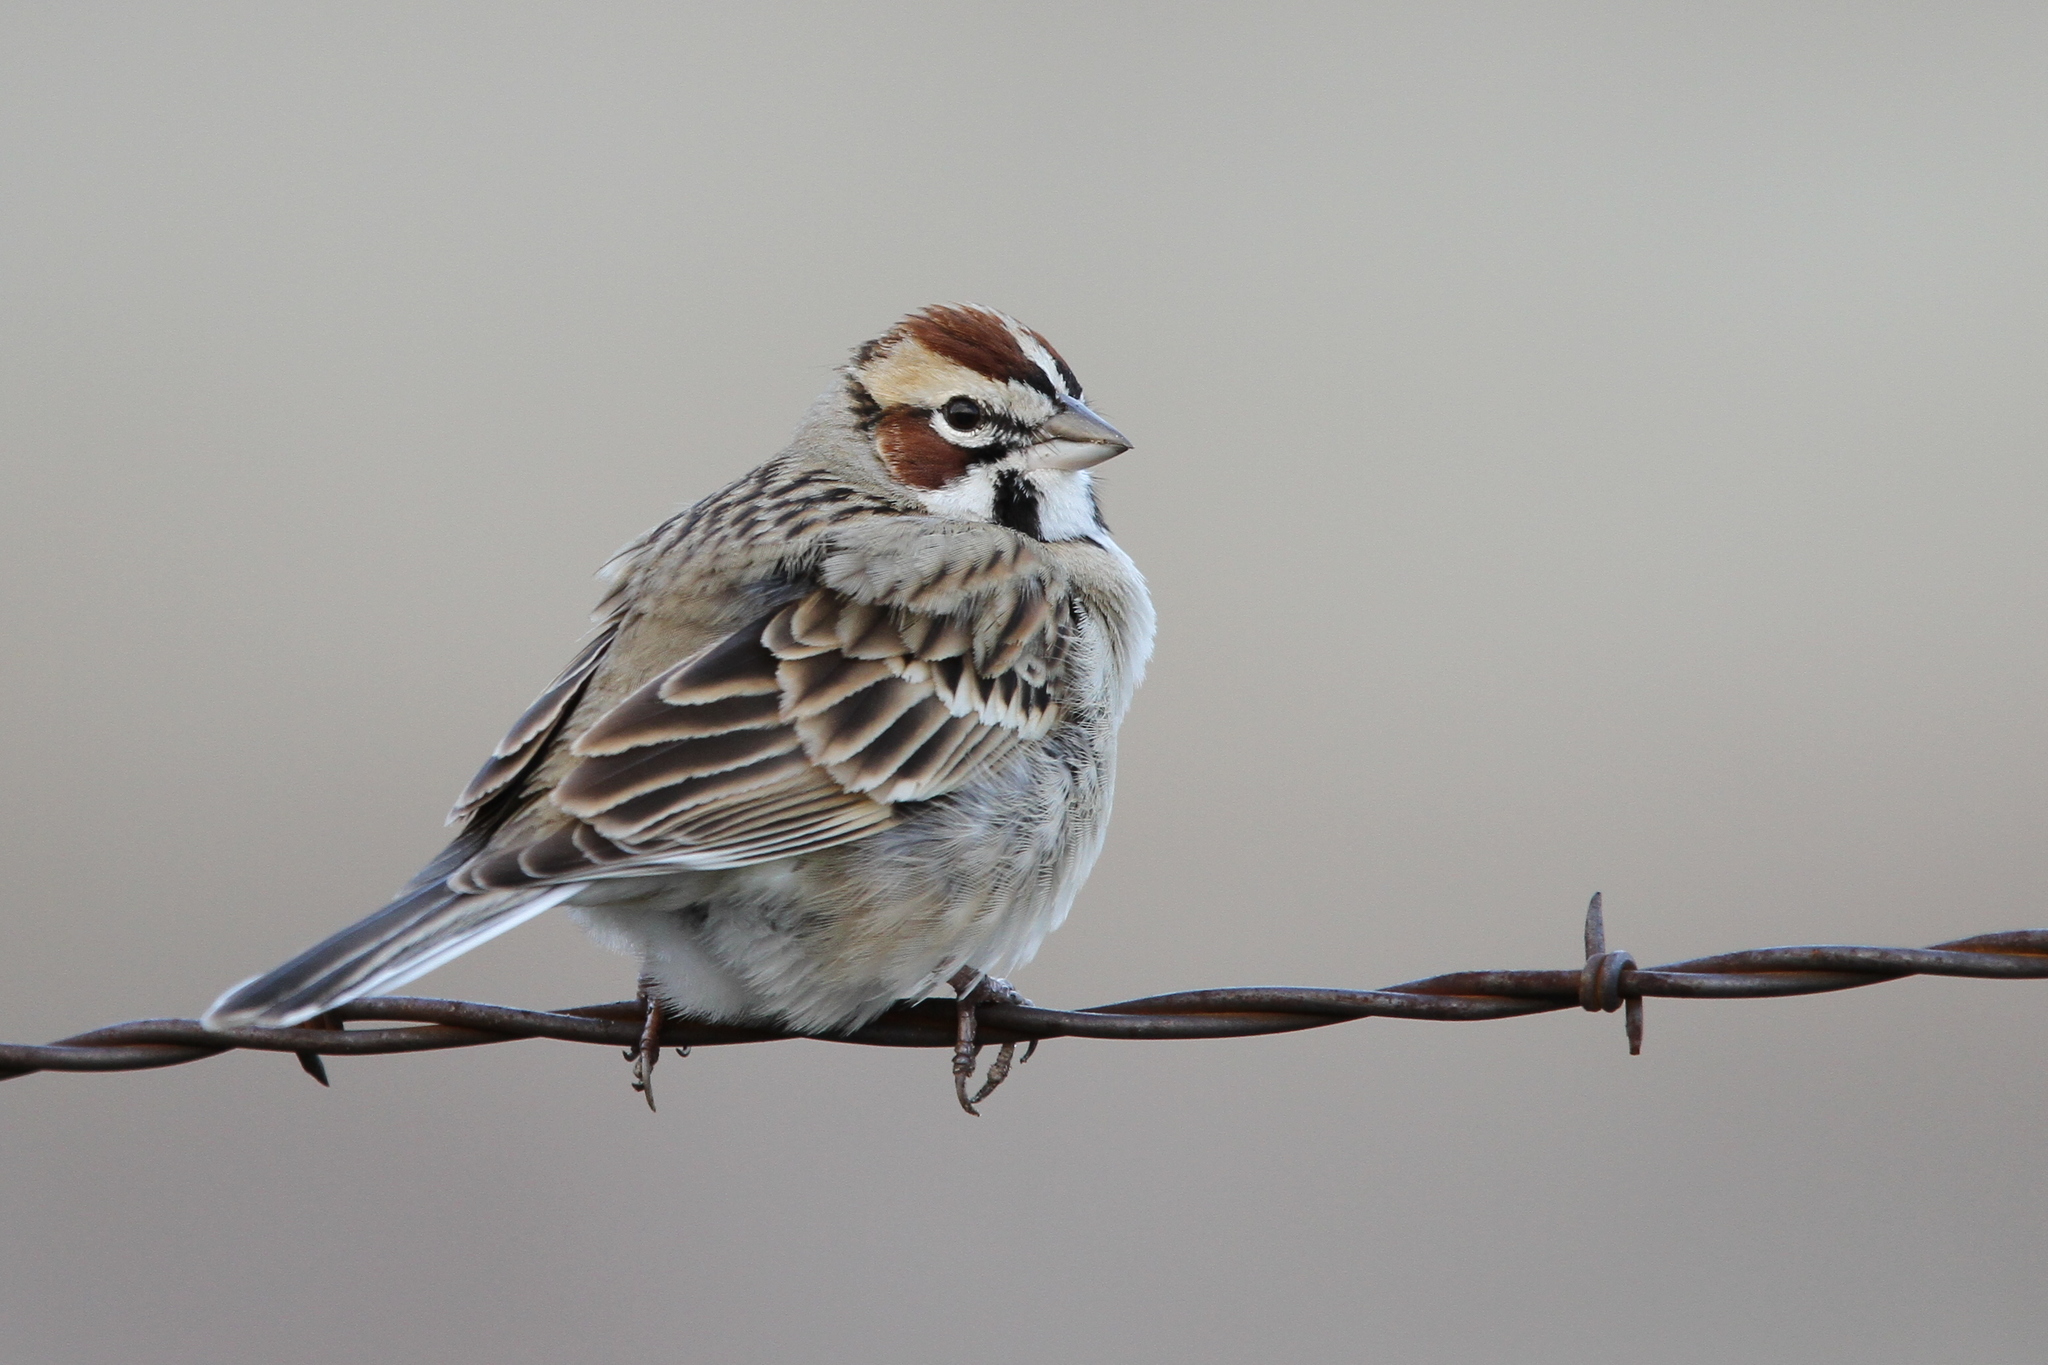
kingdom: Animalia
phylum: Chordata
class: Aves
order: Passeriformes
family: Passerellidae
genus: Chondestes
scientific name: Chondestes grammacus
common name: Lark sparrow
